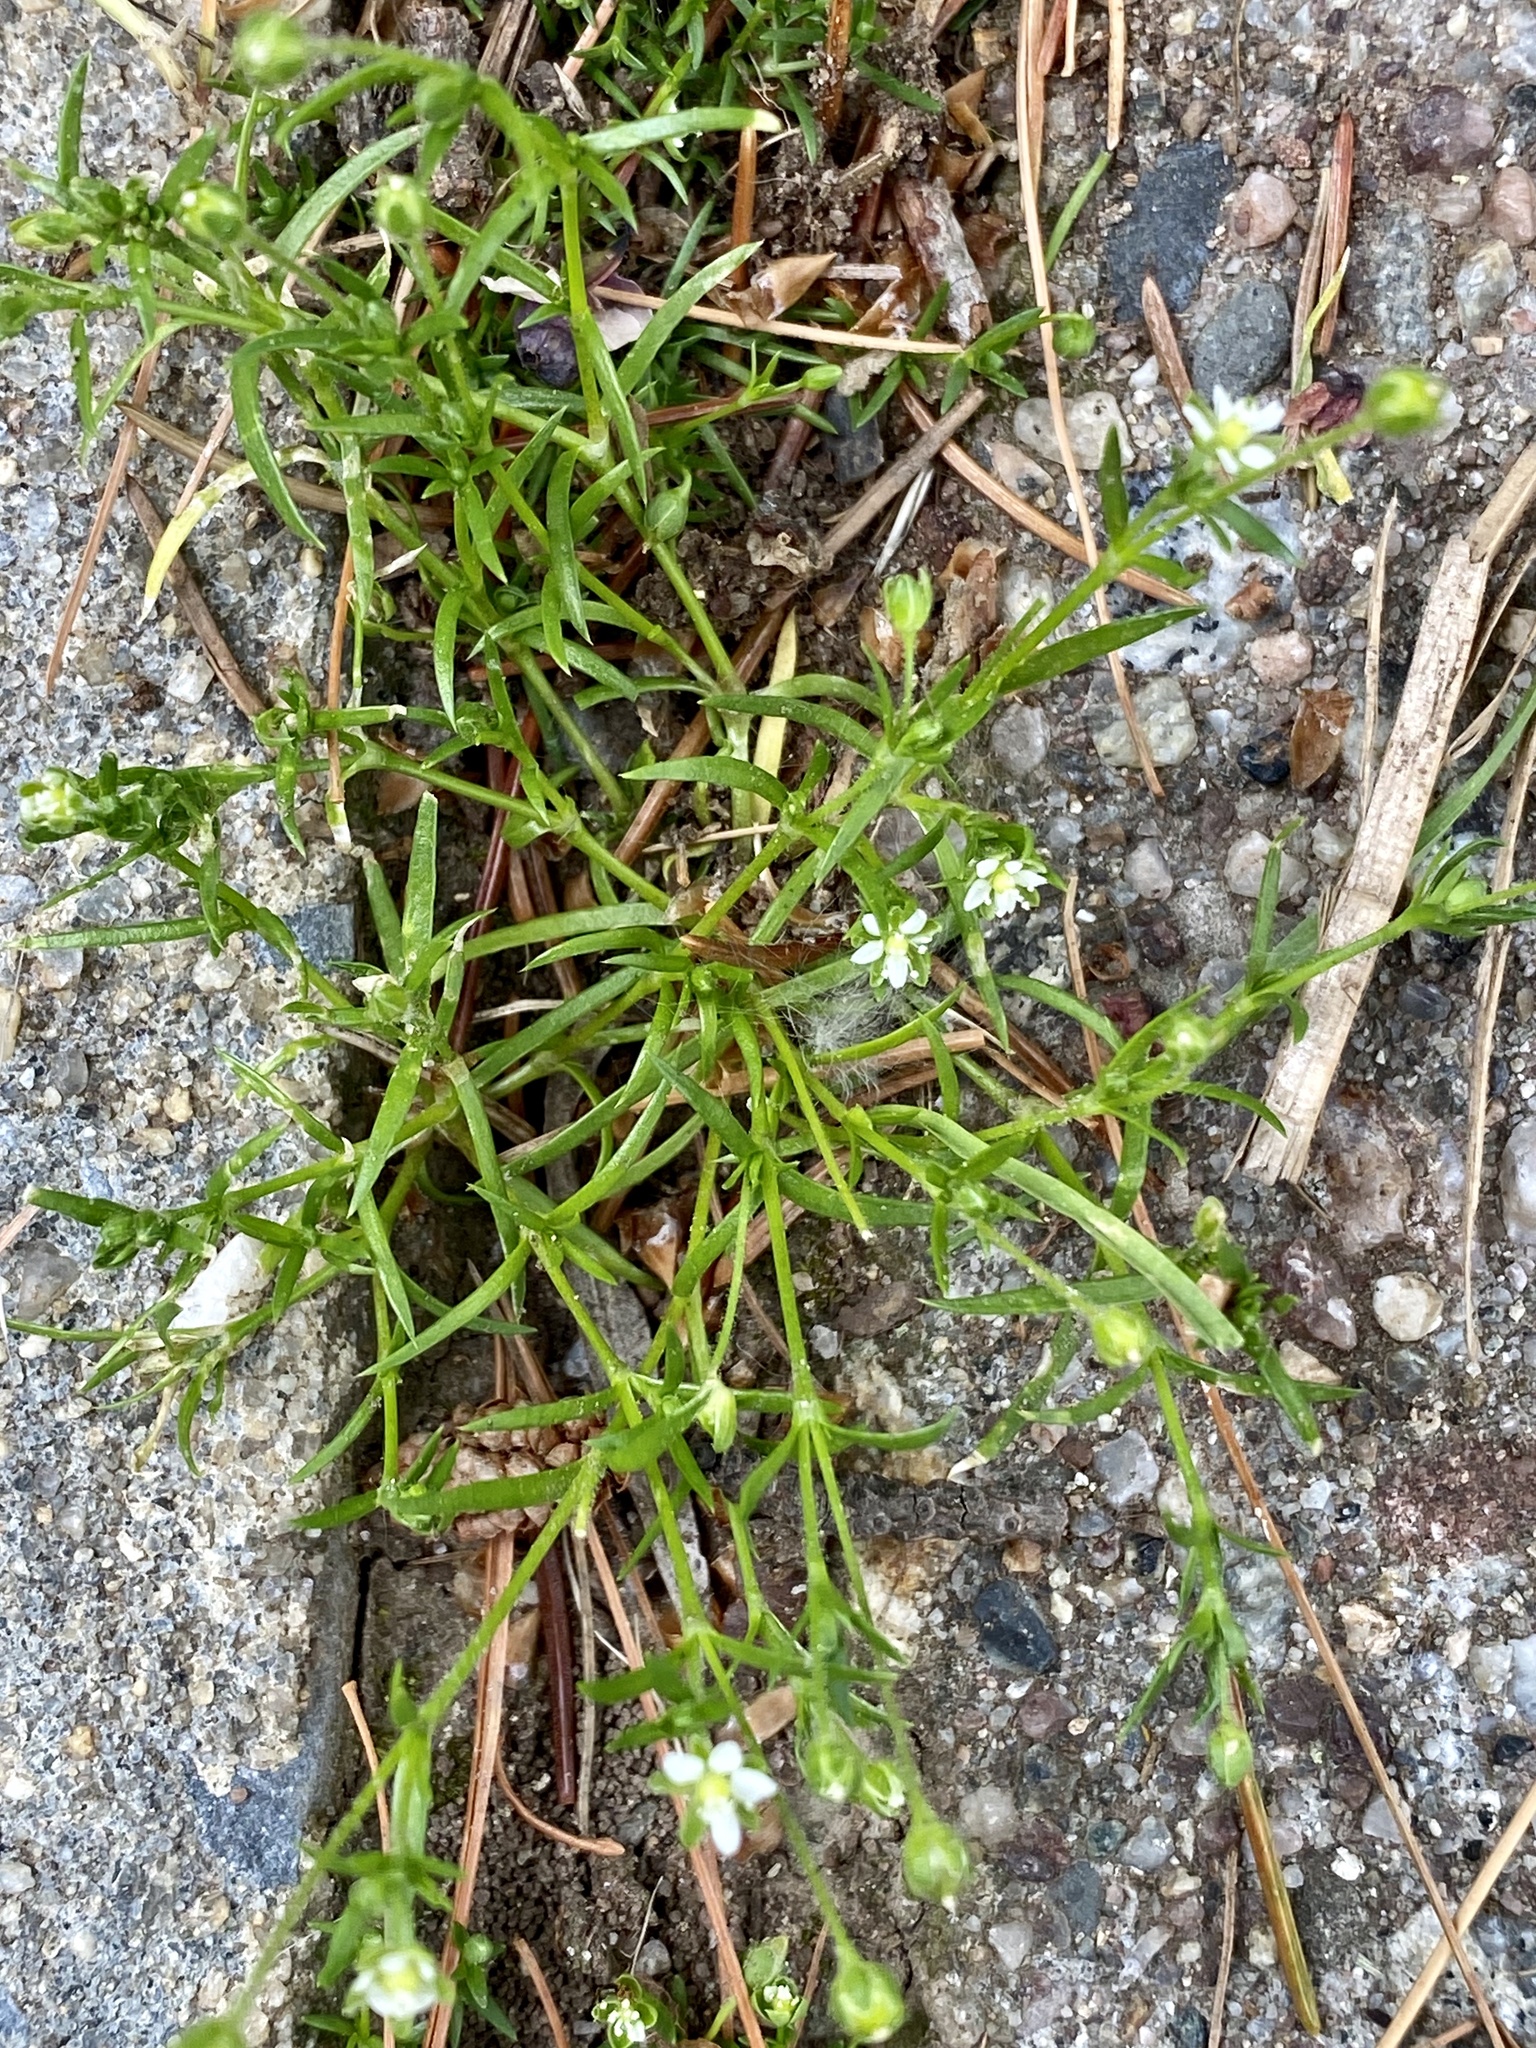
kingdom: Plantae
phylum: Tracheophyta
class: Magnoliopsida
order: Caryophyllales
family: Caryophyllaceae
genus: Sagina
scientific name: Sagina procumbens
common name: Procumbent pearlwort
